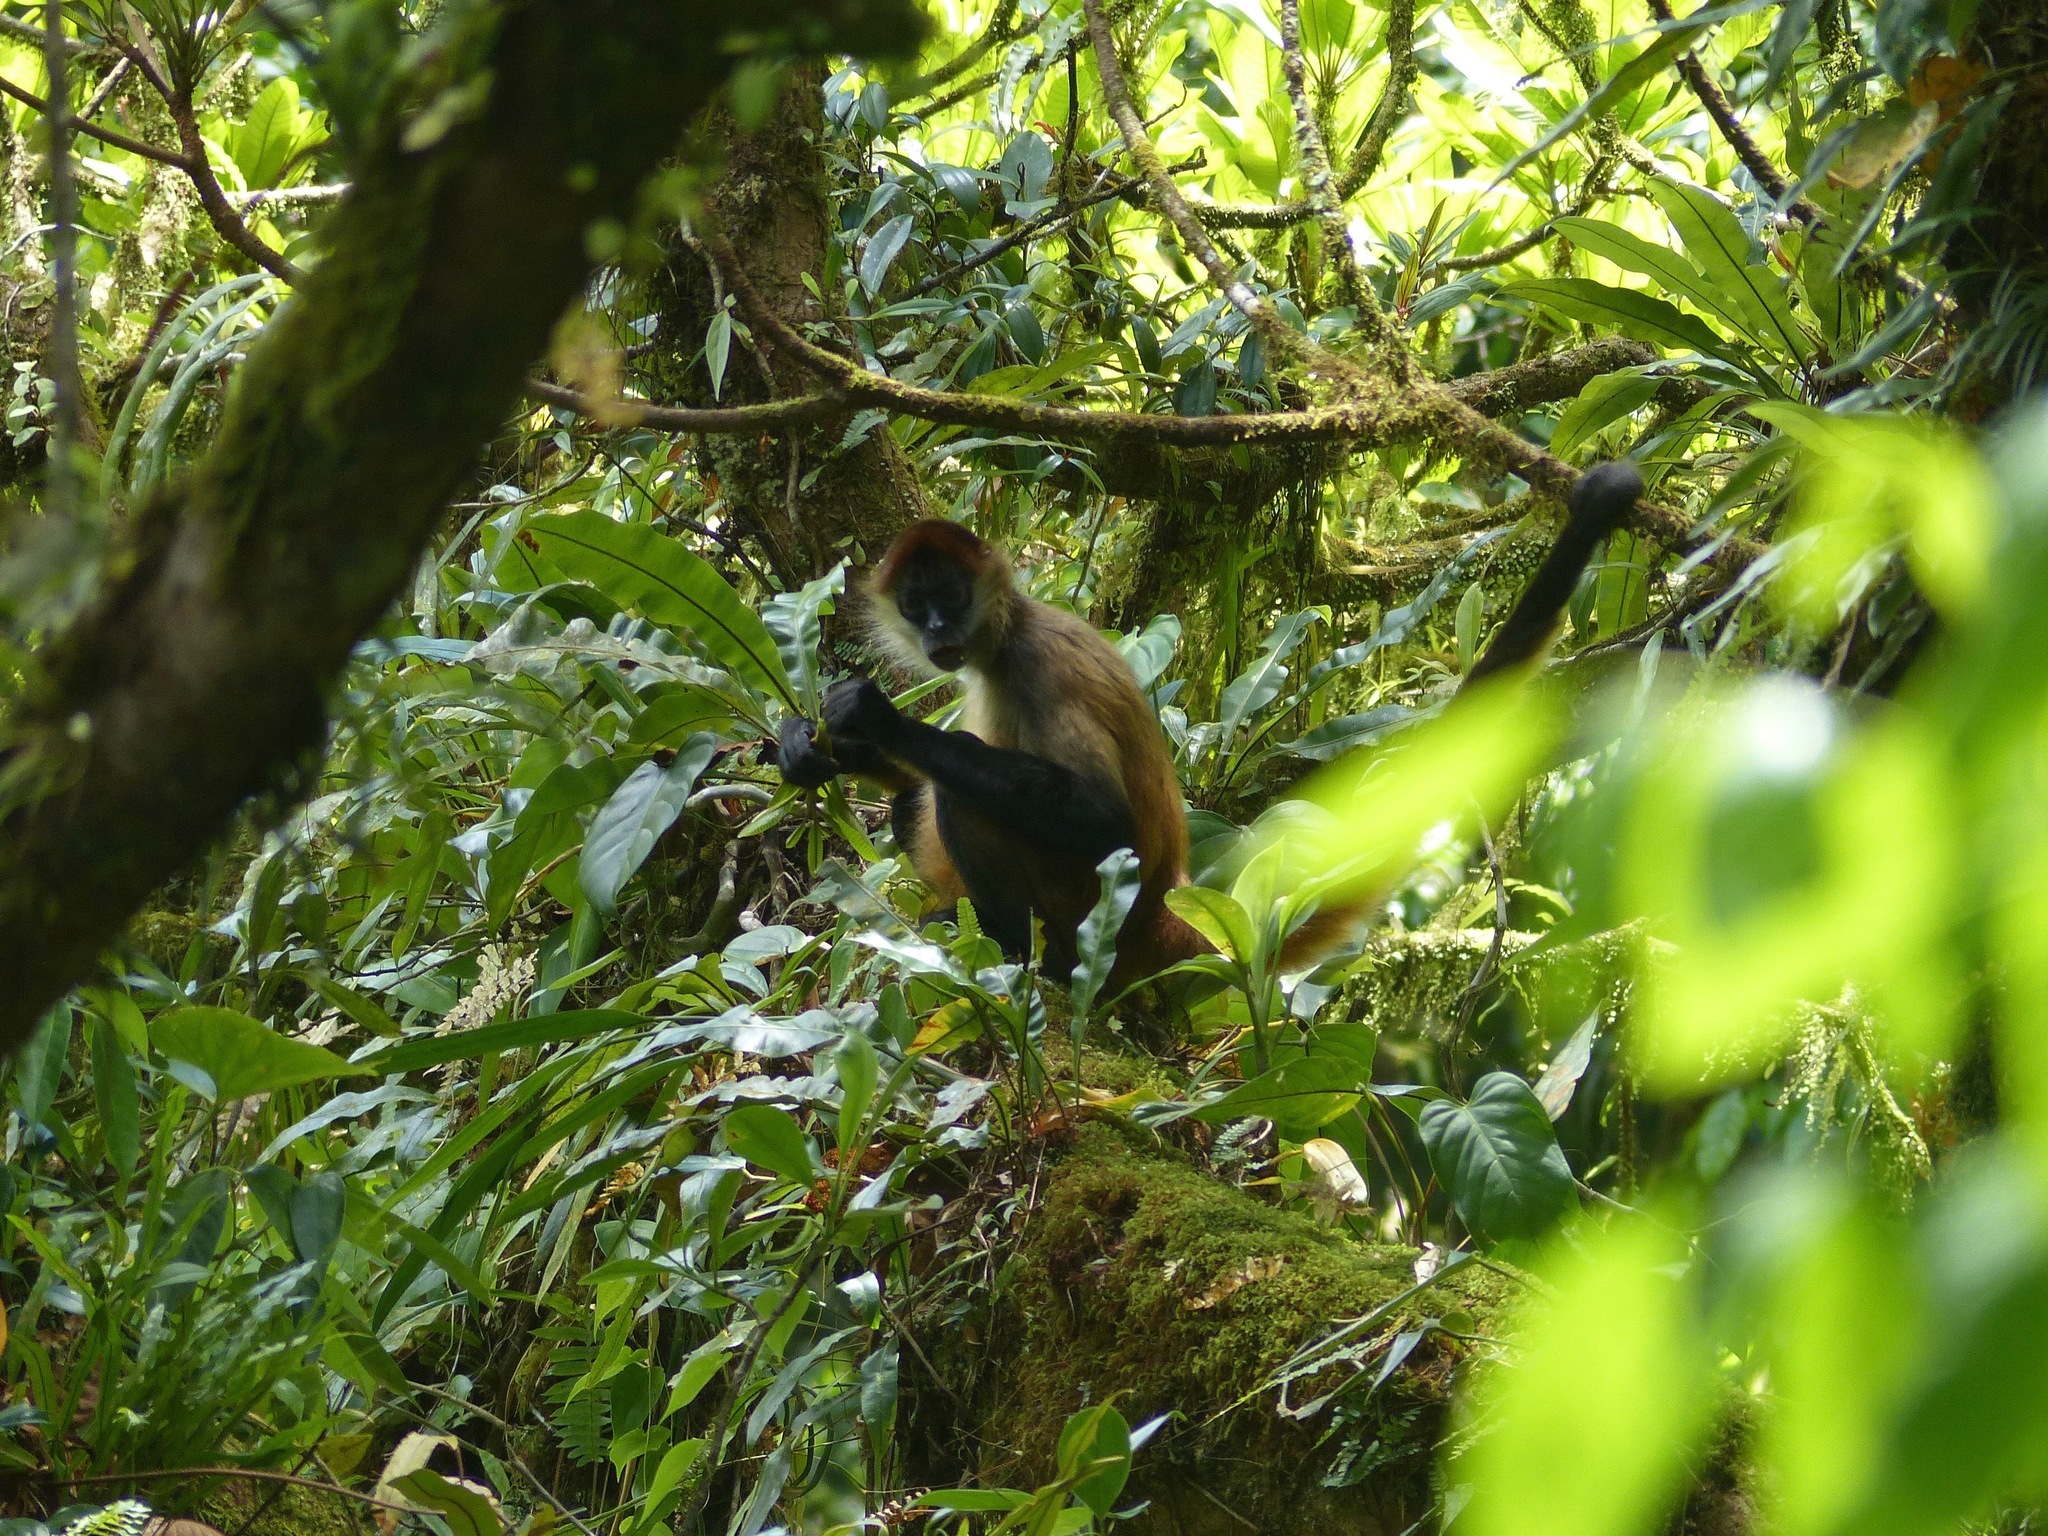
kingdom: Animalia
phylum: Chordata
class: Mammalia
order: Primates
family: Atelidae
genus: Ateles
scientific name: Ateles geoffroyi
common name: Black-handed spider monkey
